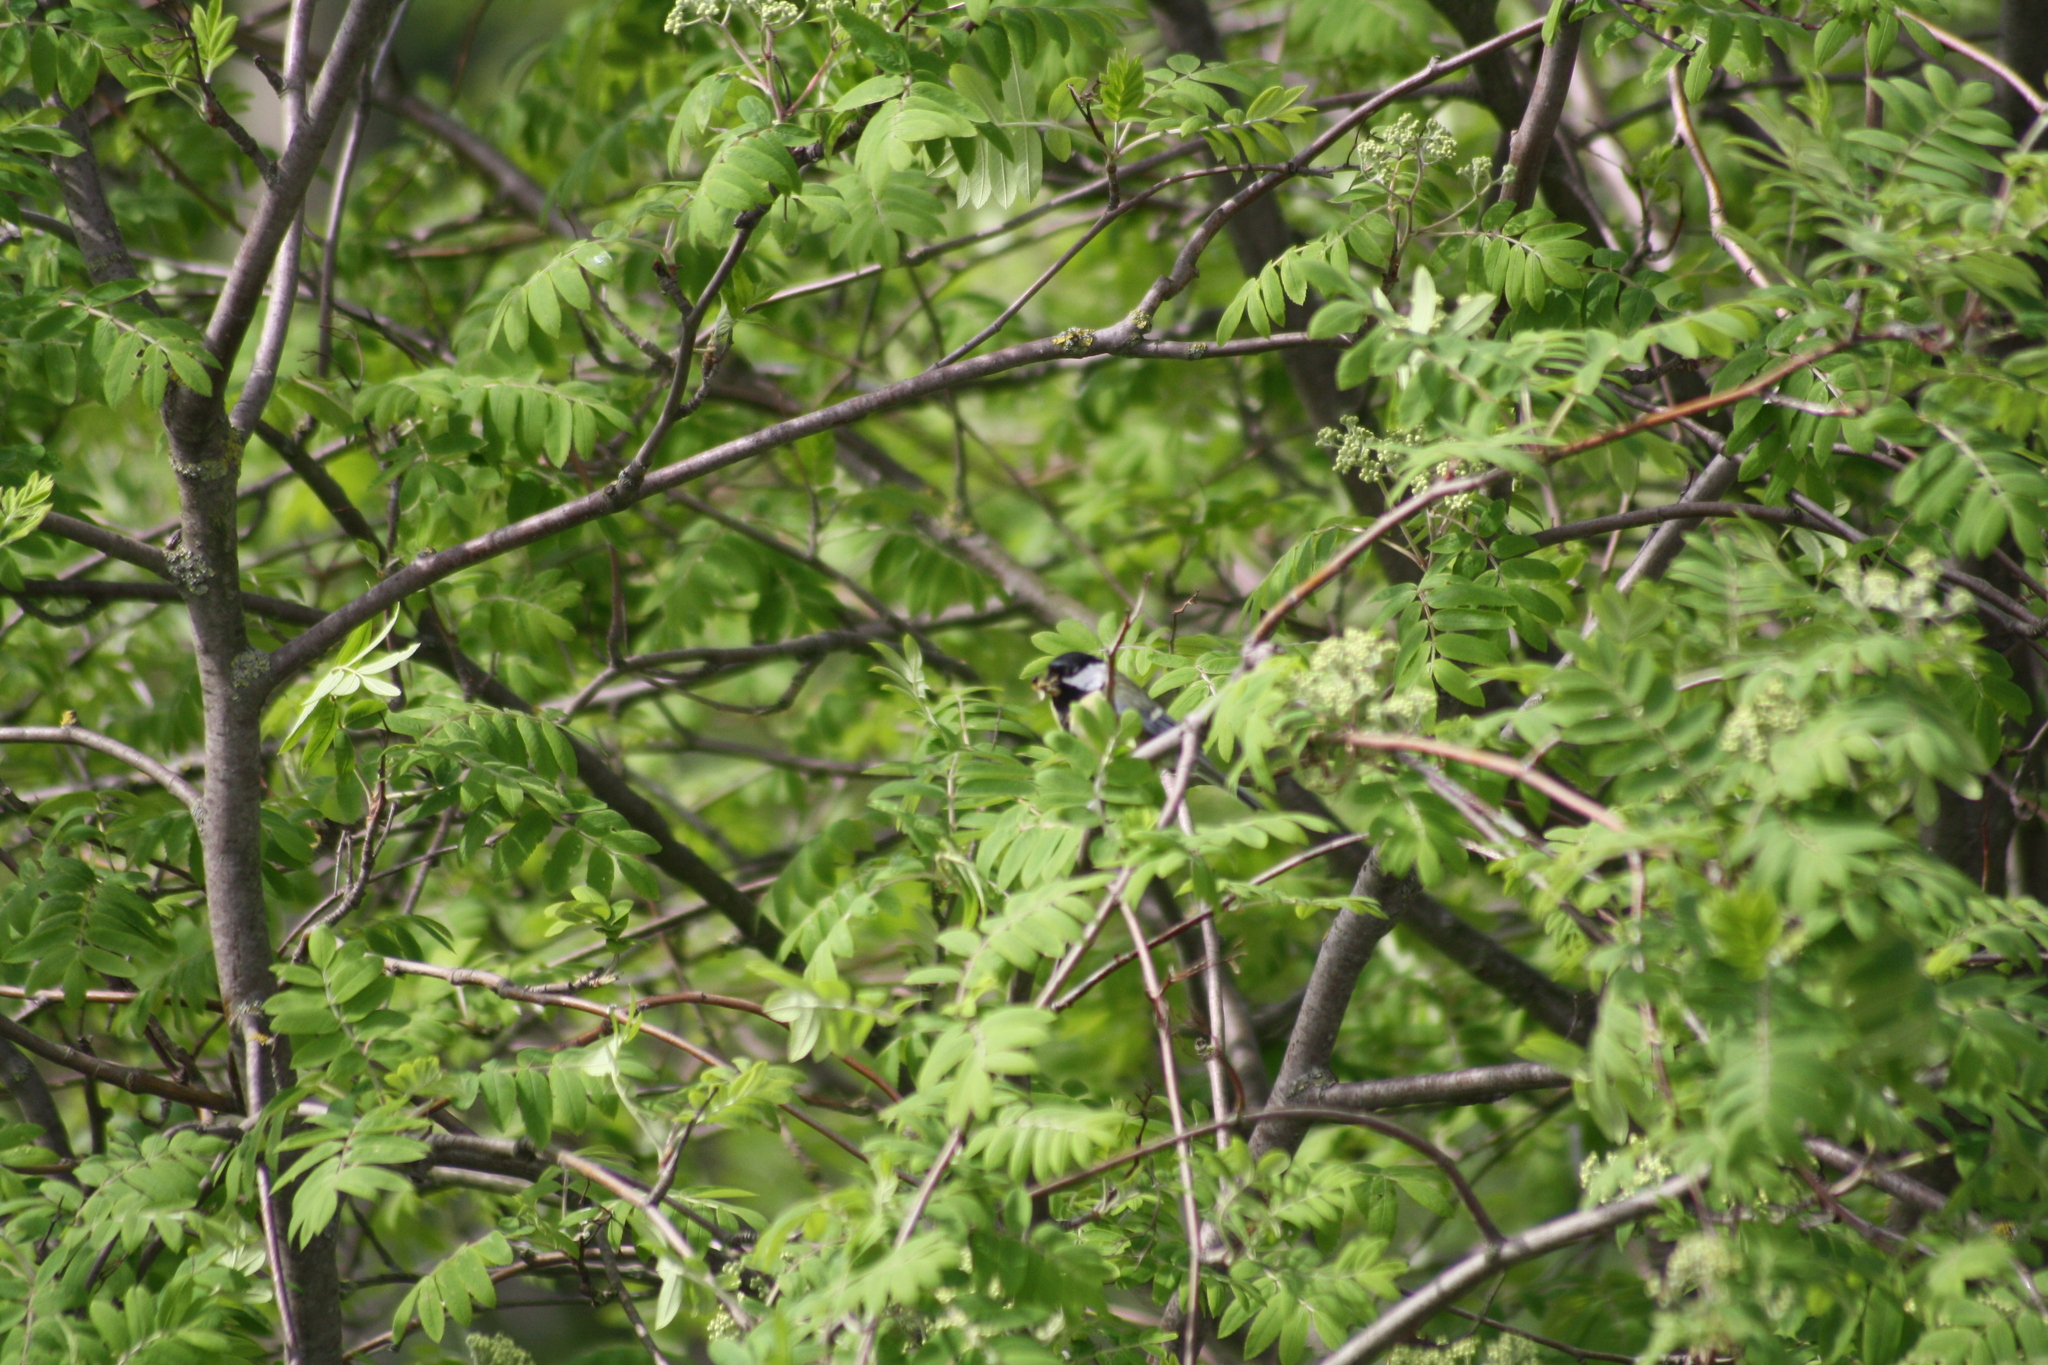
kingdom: Animalia
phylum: Chordata
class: Aves
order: Passeriformes
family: Paridae
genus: Parus
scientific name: Parus major
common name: Great tit
